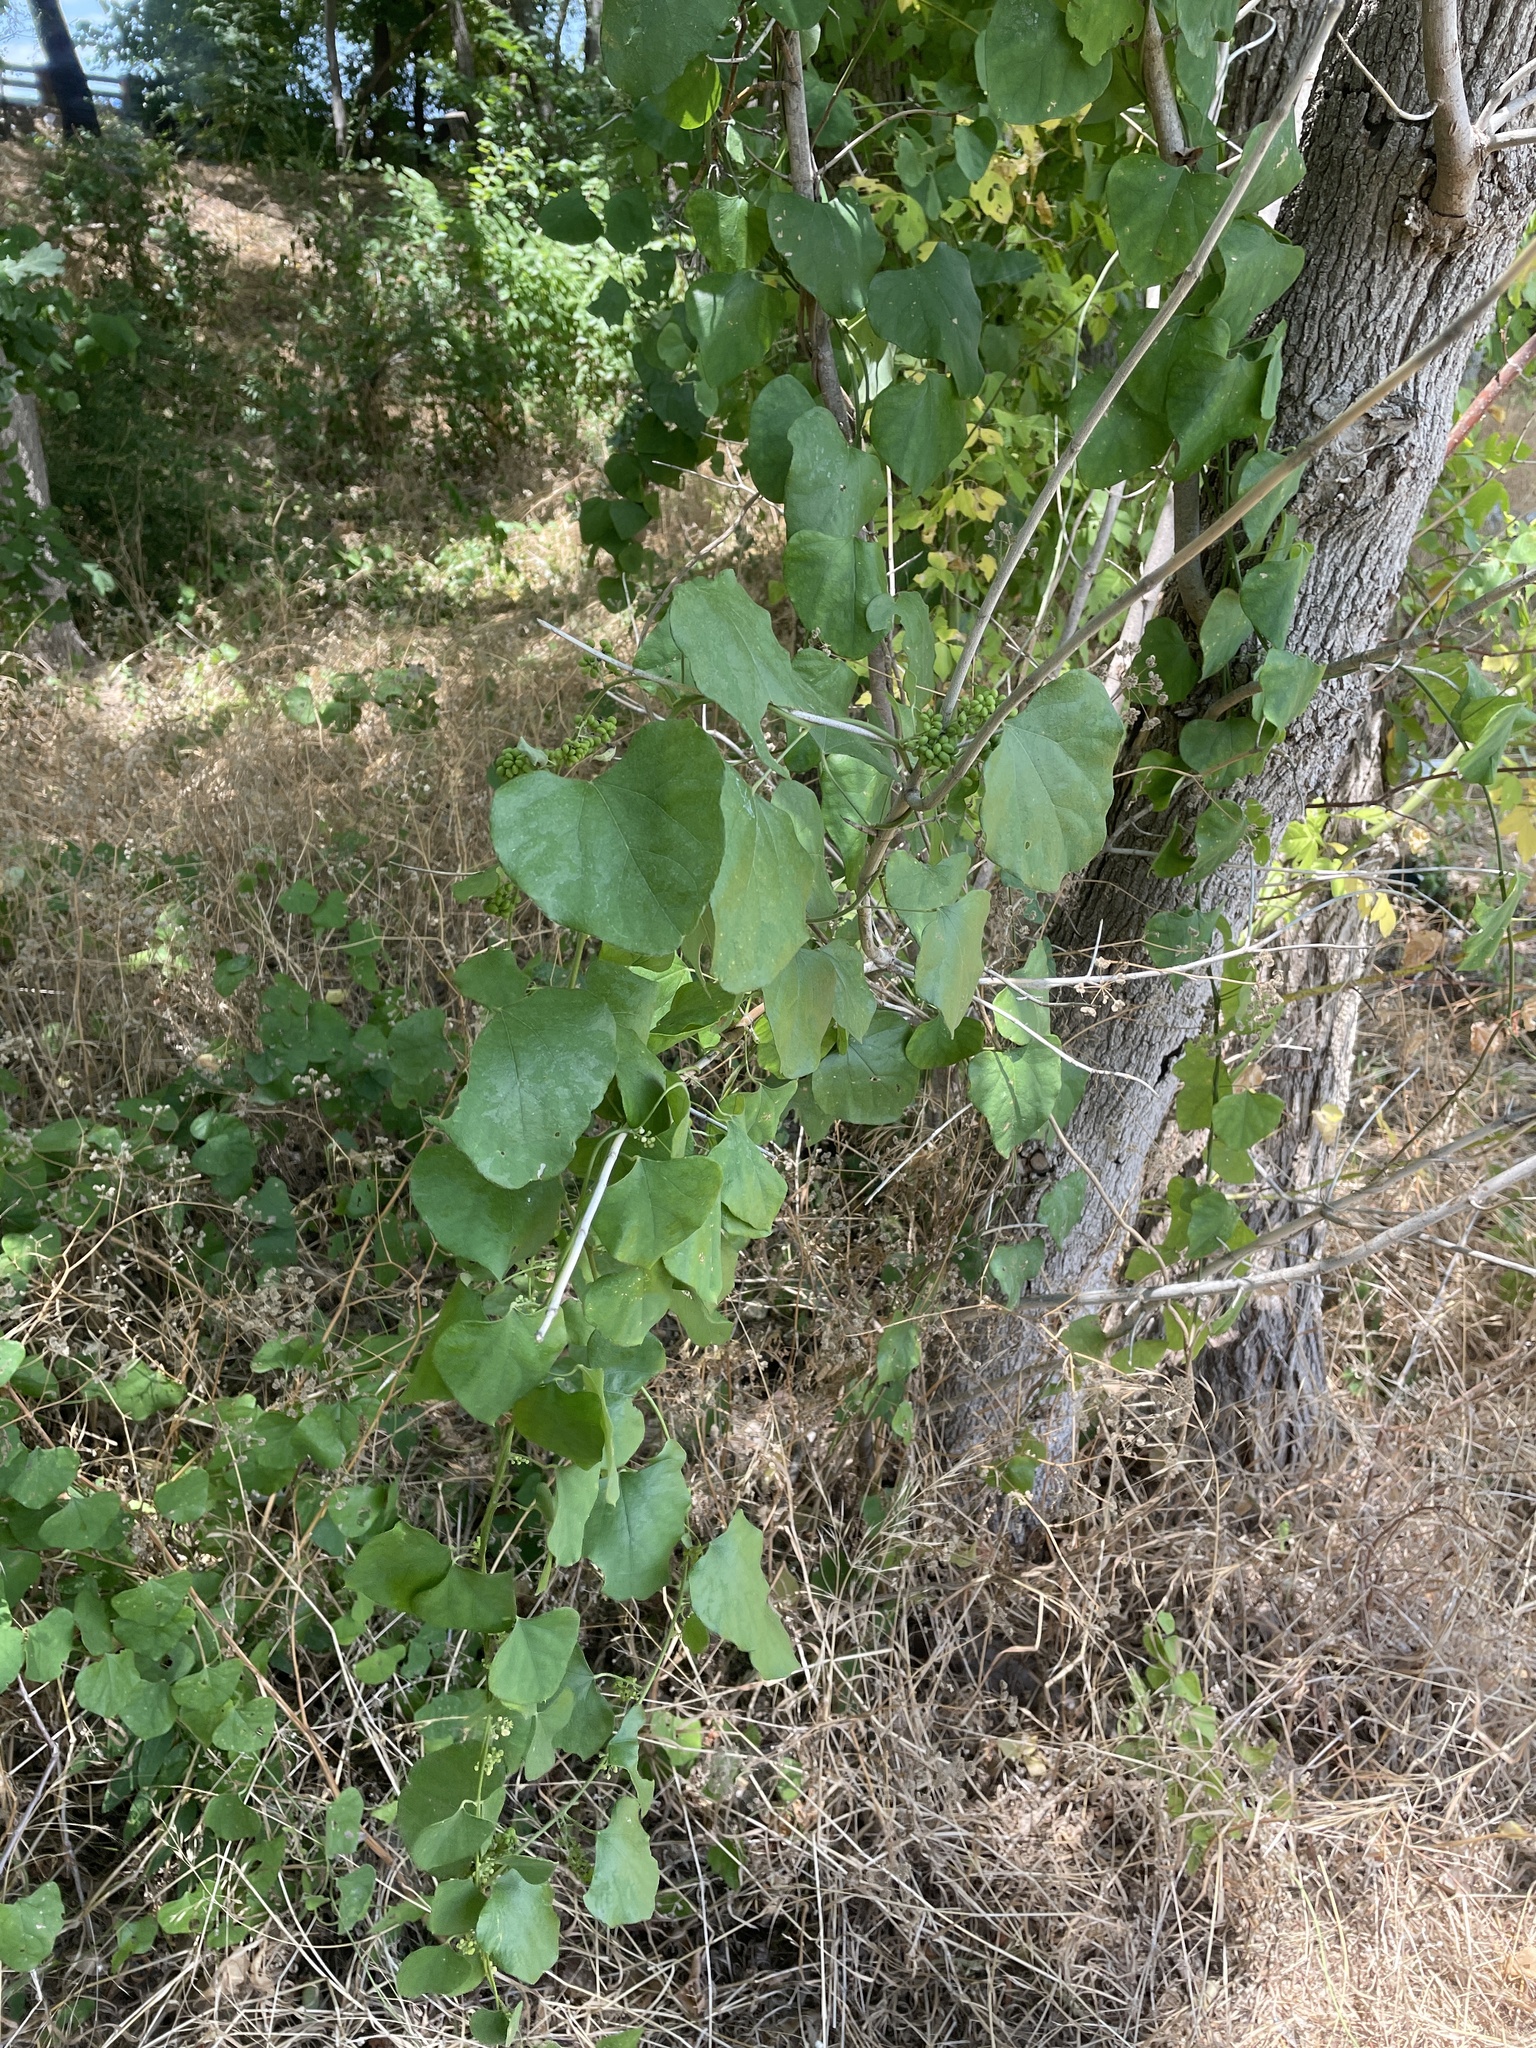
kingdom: Plantae
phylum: Tracheophyta
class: Magnoliopsida
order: Ranunculales
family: Menispermaceae
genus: Cocculus
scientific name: Cocculus carolinus
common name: Carolina moonseed
